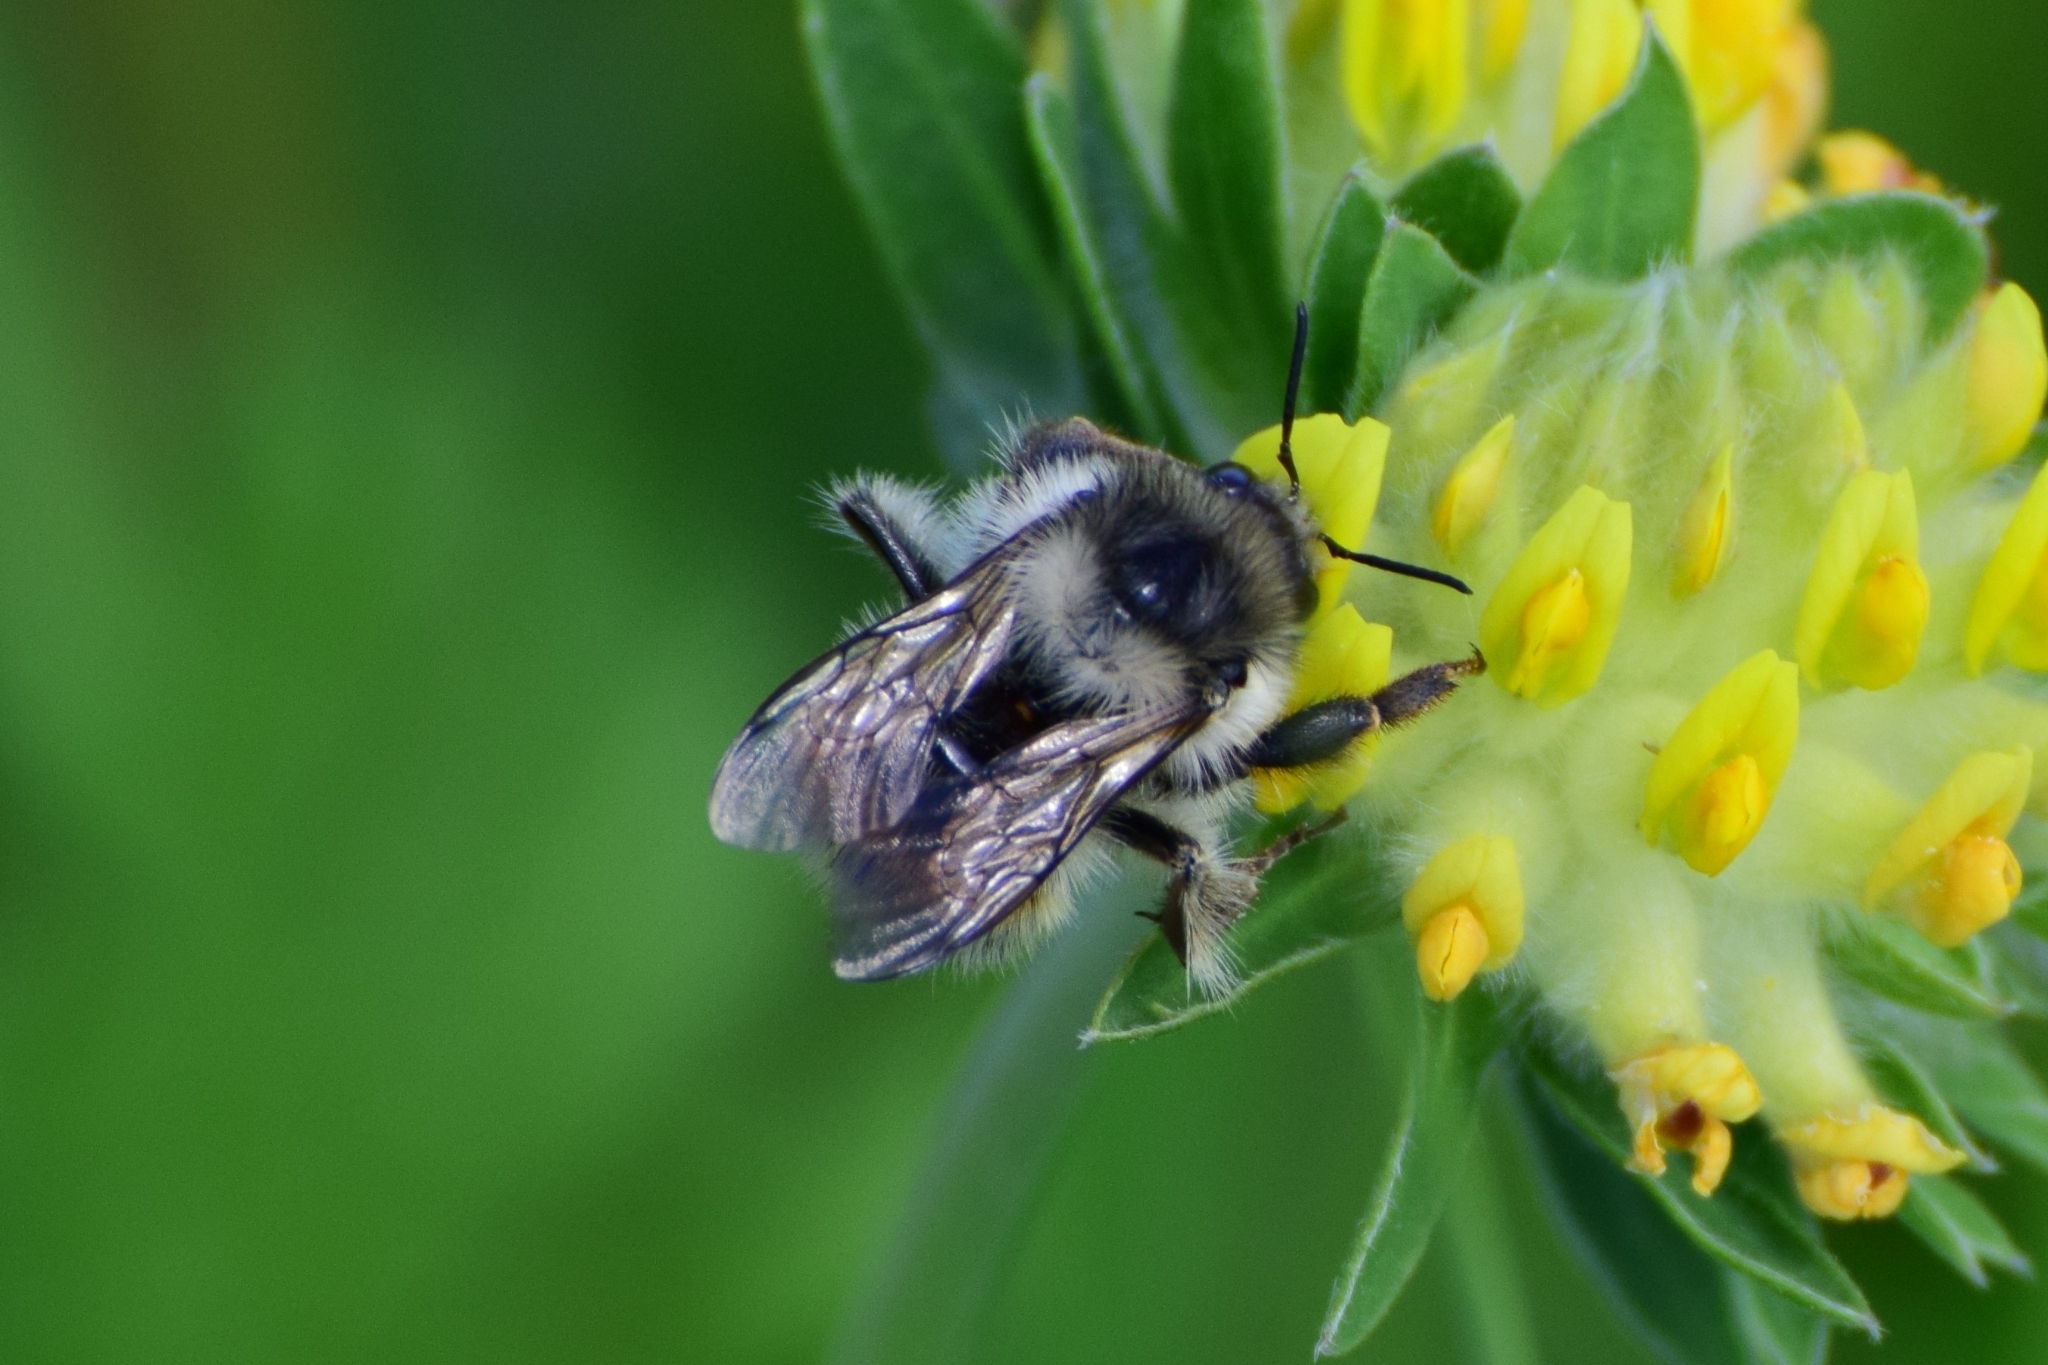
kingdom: Animalia
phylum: Arthropoda
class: Insecta
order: Hymenoptera
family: Apidae
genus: Bombus
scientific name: Bombus deuteronymus
